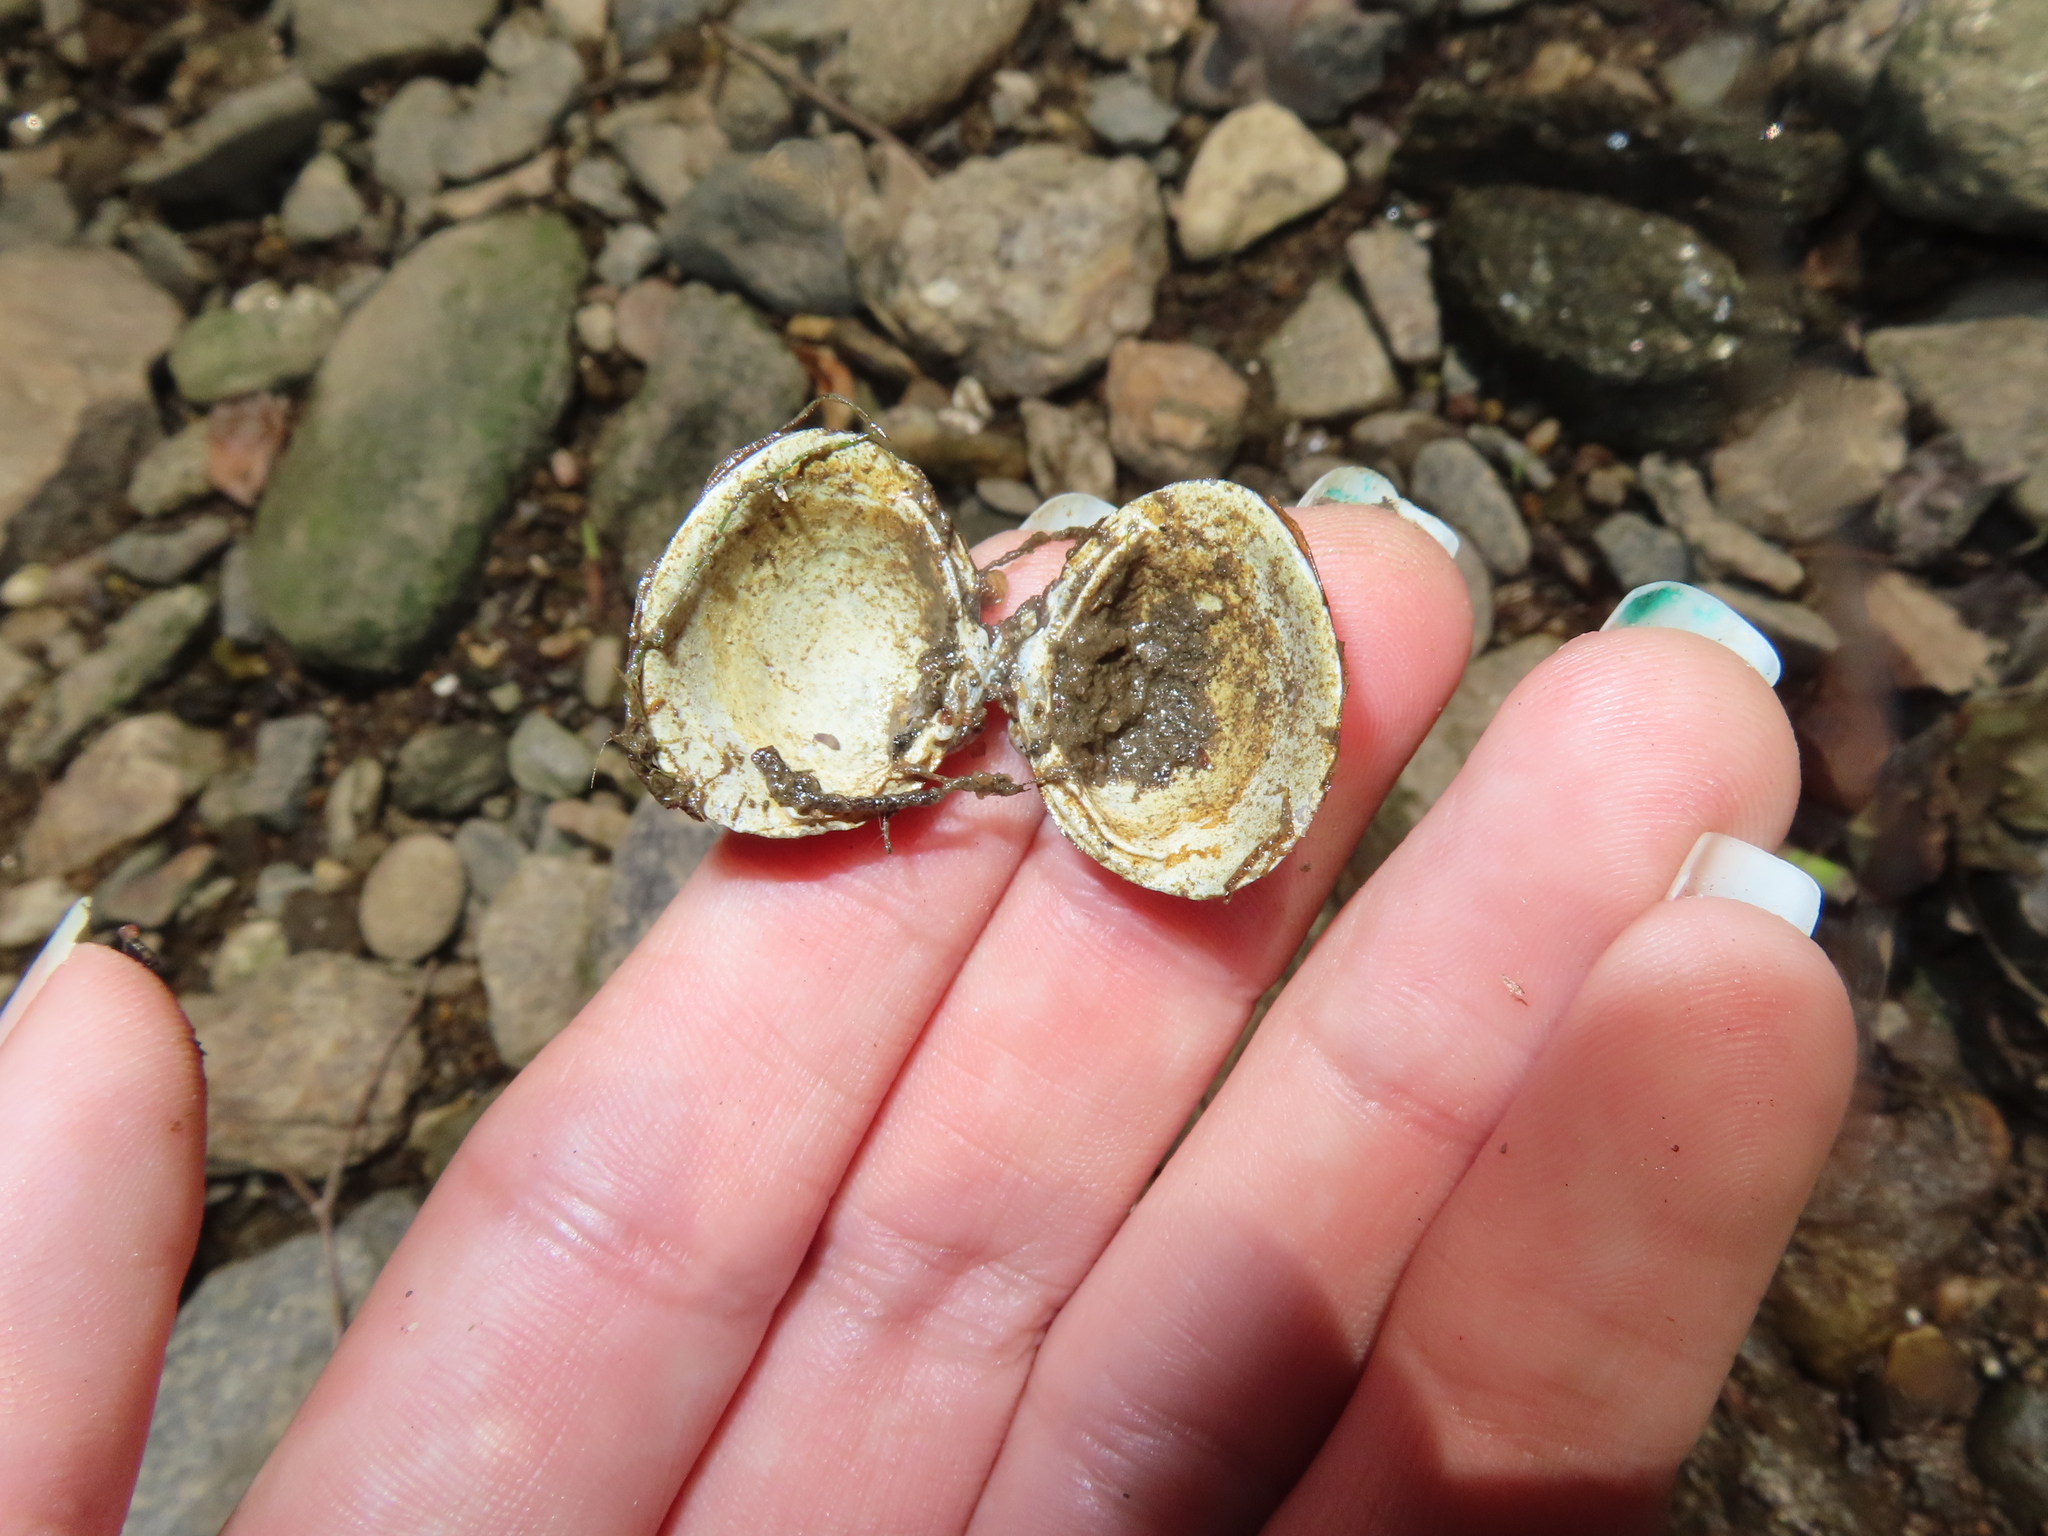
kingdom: Animalia
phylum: Mollusca
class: Bivalvia
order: Venerida
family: Cyrenidae
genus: Corbicula
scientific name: Corbicula fluminea
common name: Asian clam
